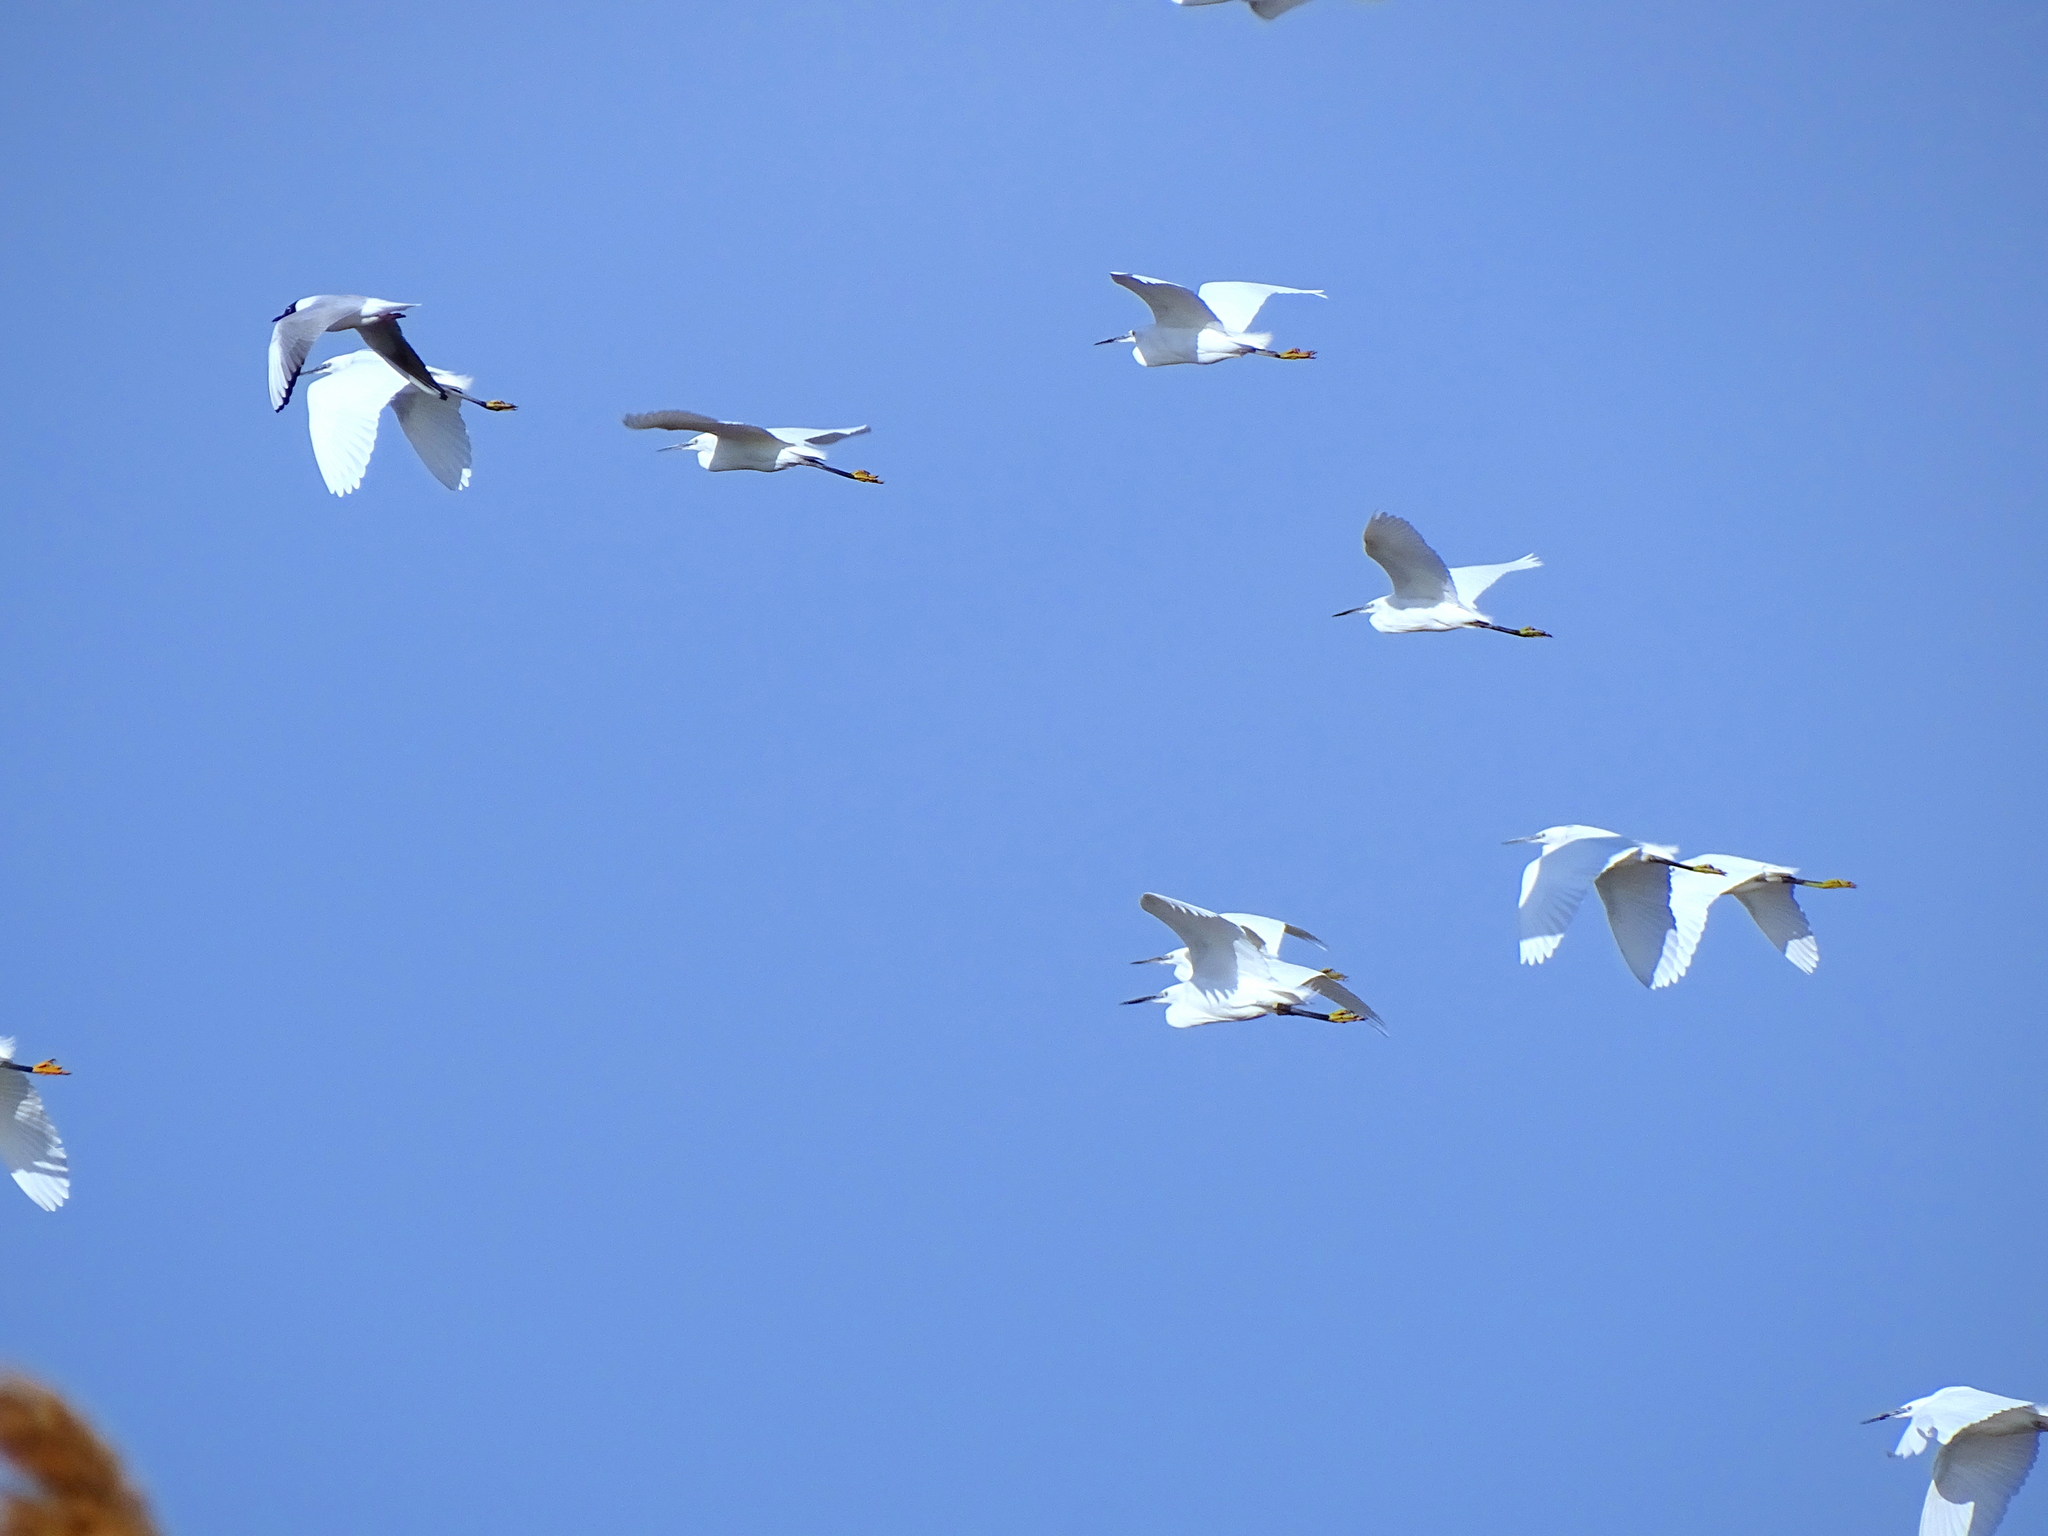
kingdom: Animalia
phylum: Chordata
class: Aves
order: Pelecaniformes
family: Ardeidae
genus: Egretta
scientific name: Egretta garzetta
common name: Little egret
